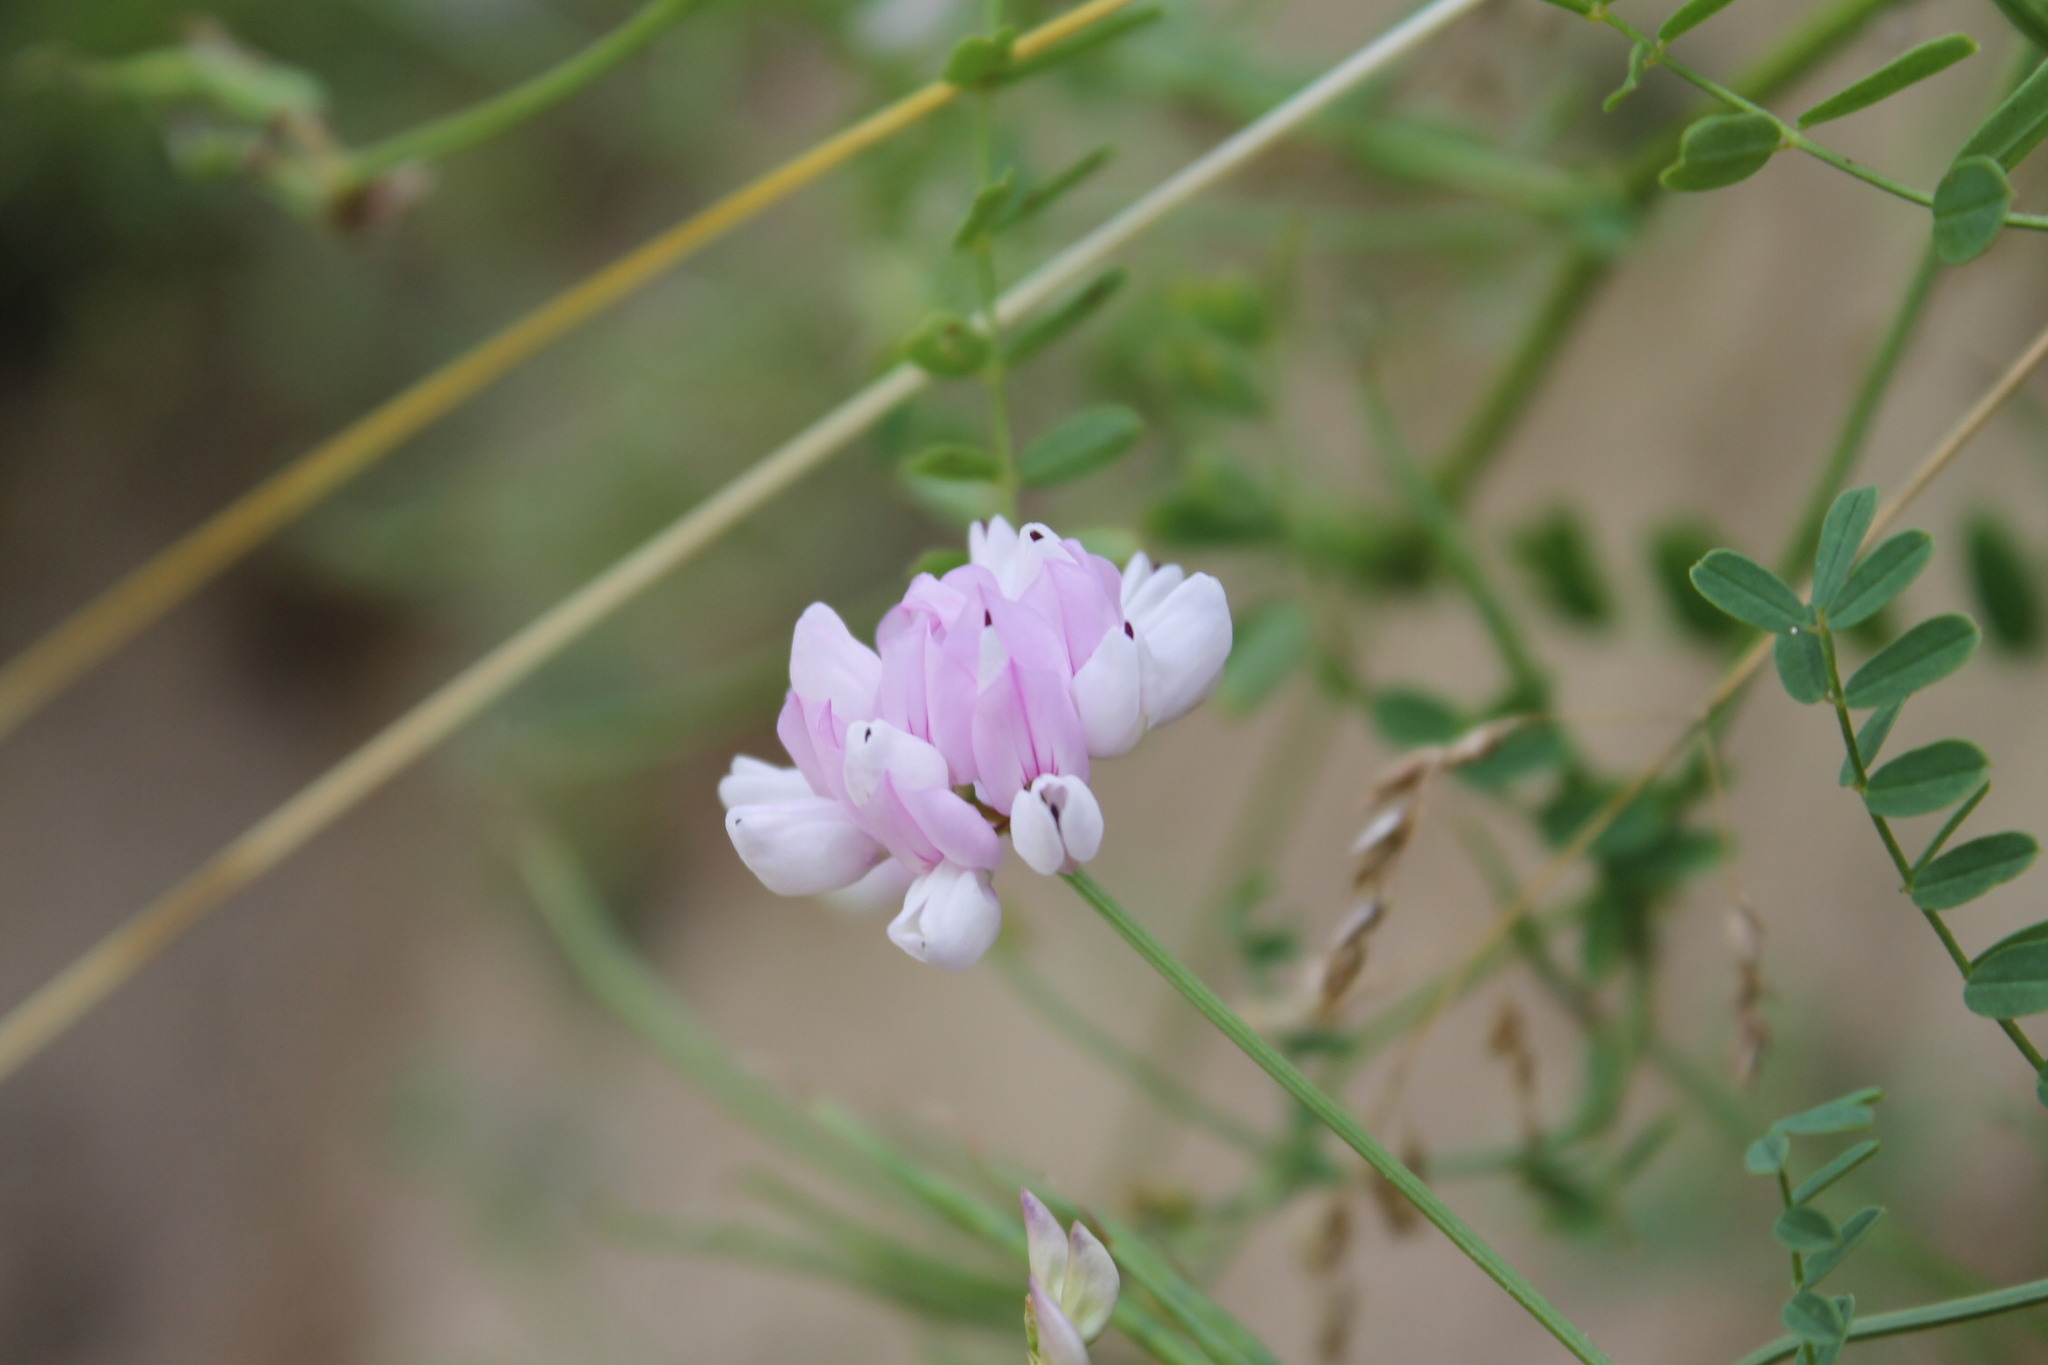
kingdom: Plantae
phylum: Tracheophyta
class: Magnoliopsida
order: Fabales
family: Fabaceae
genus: Coronilla
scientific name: Coronilla varia
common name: Crownvetch
